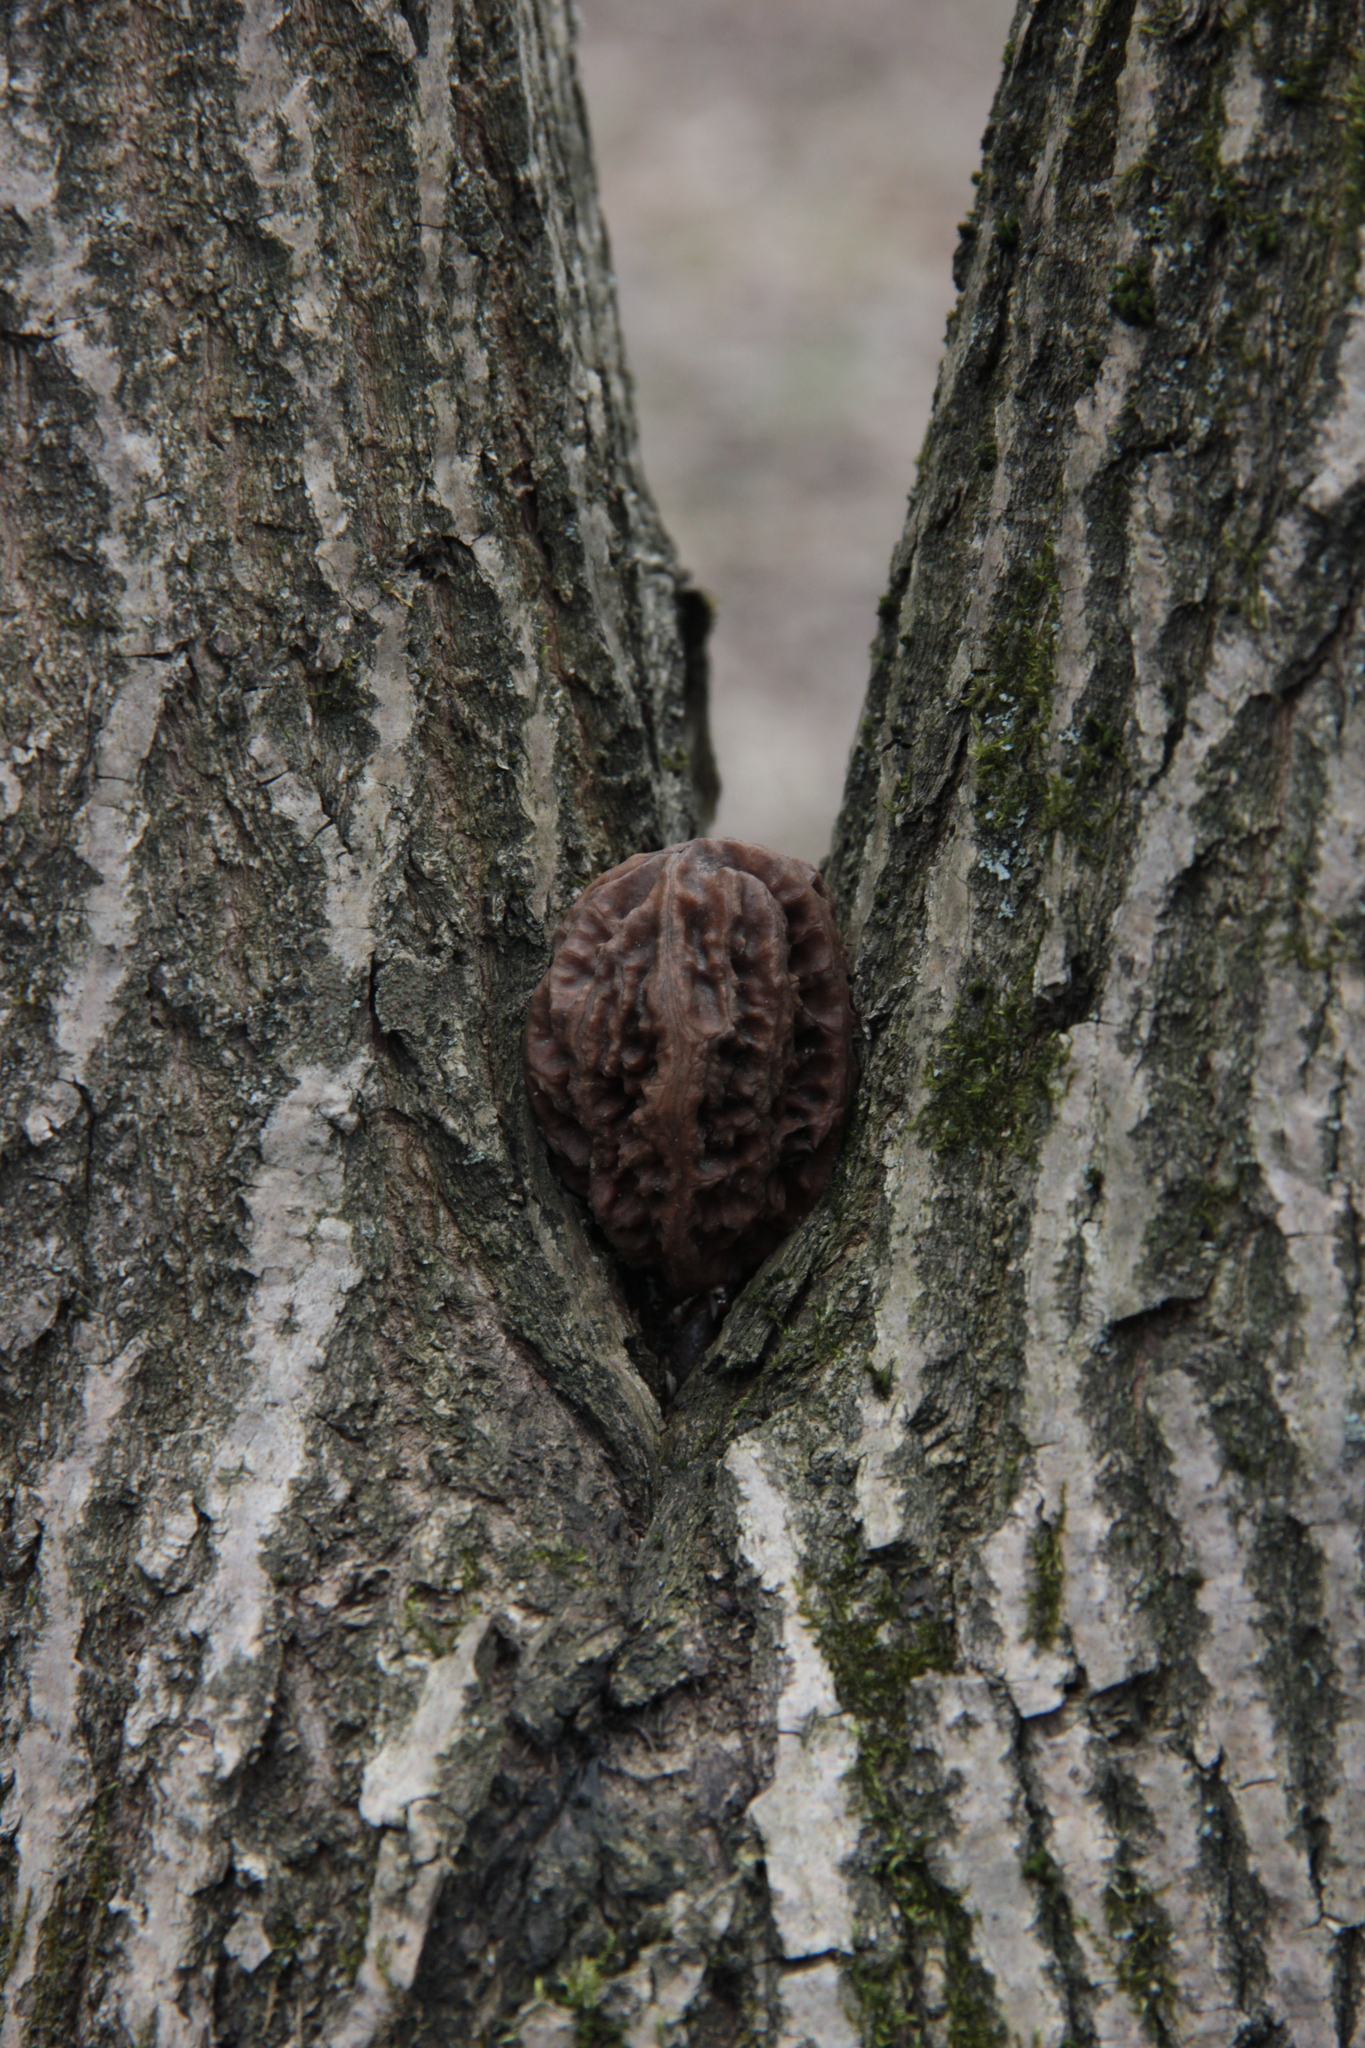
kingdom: Plantae
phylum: Tracheophyta
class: Magnoliopsida
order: Fagales
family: Juglandaceae
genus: Juglans
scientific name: Juglans mandshurica
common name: Manchurian walnut
